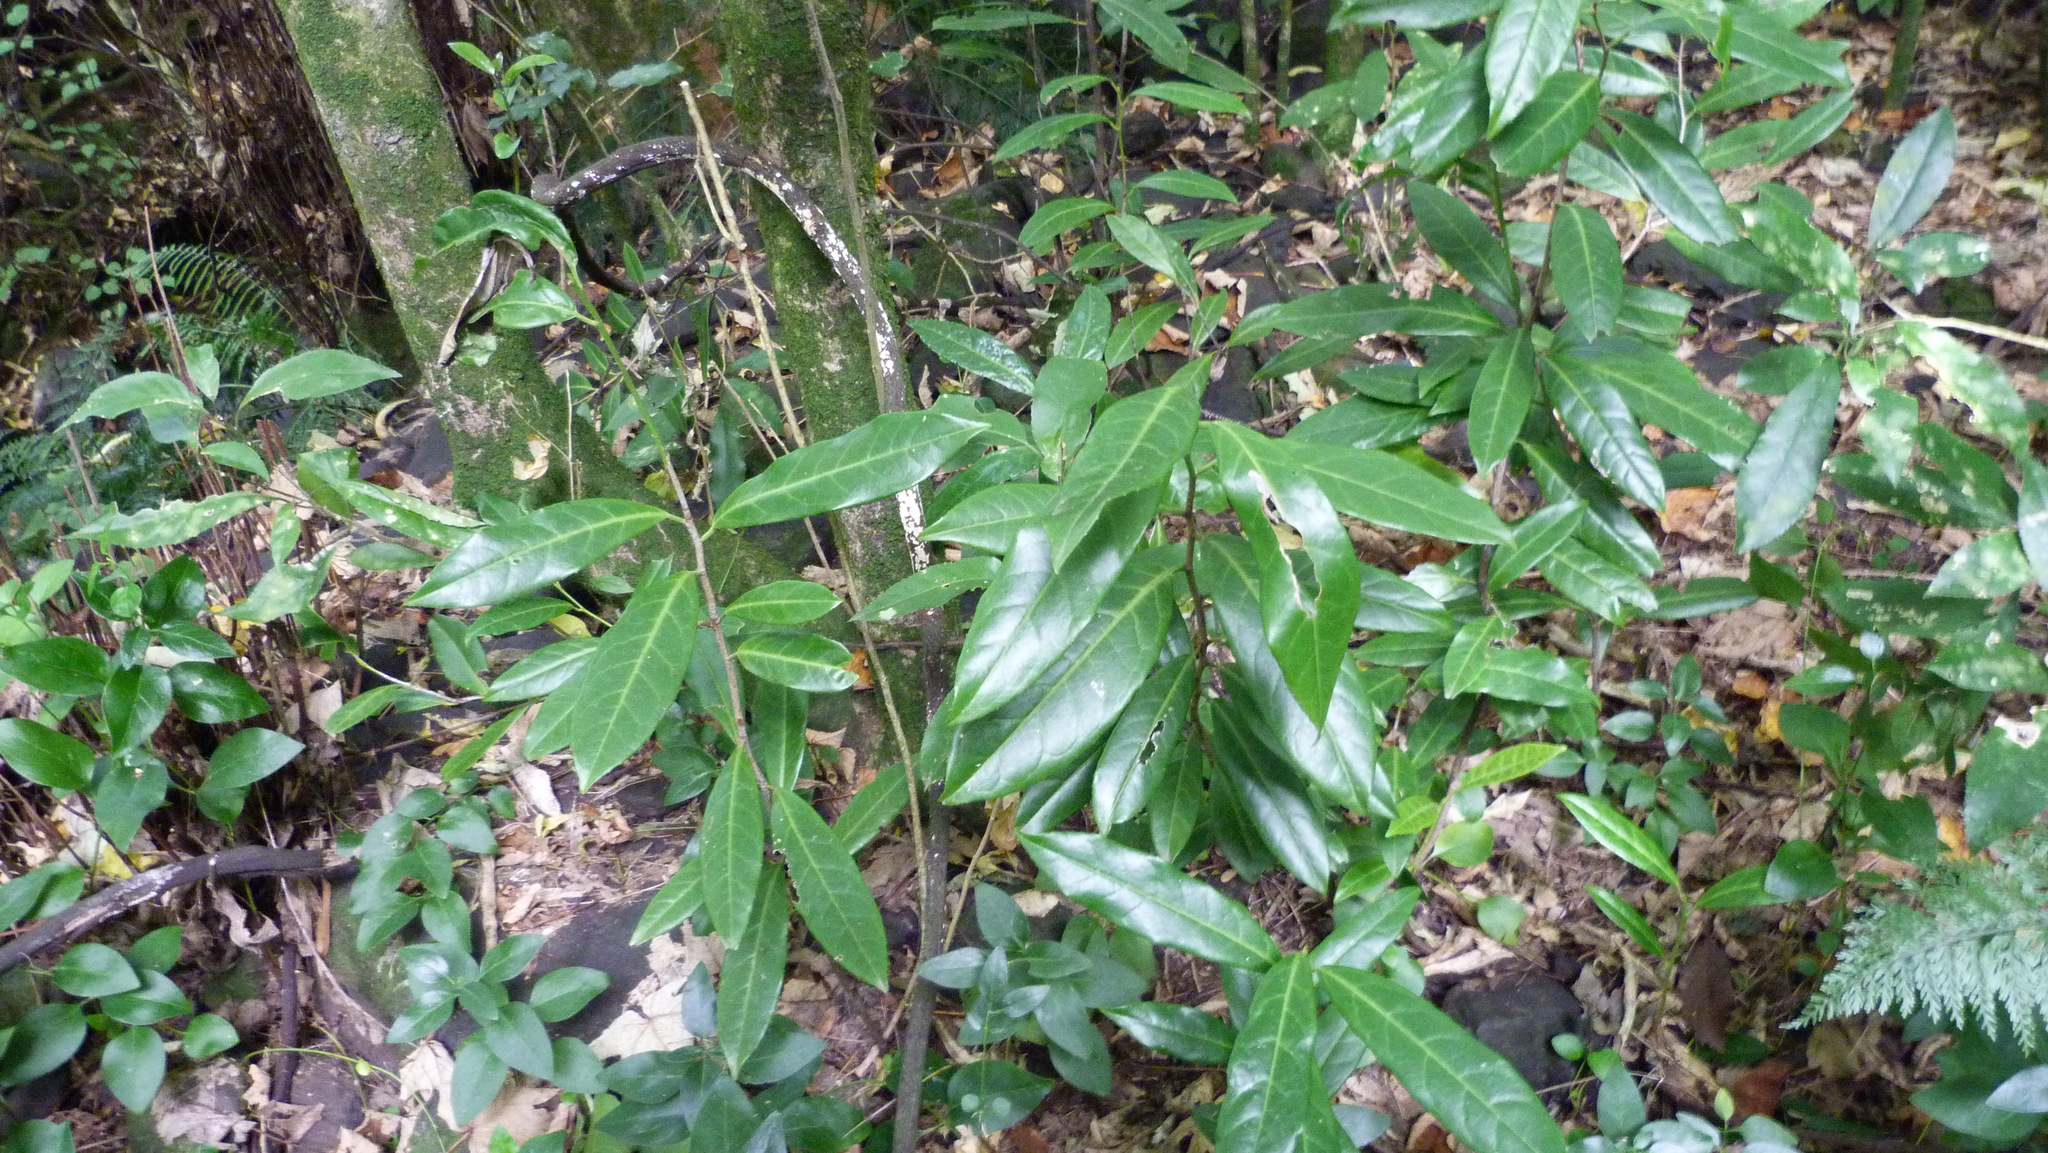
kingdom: Plantae
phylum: Tracheophyta
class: Magnoliopsida
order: Rosales
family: Rosaceae
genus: Prunus
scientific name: Prunus laurocerasus
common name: Cherry laurel
